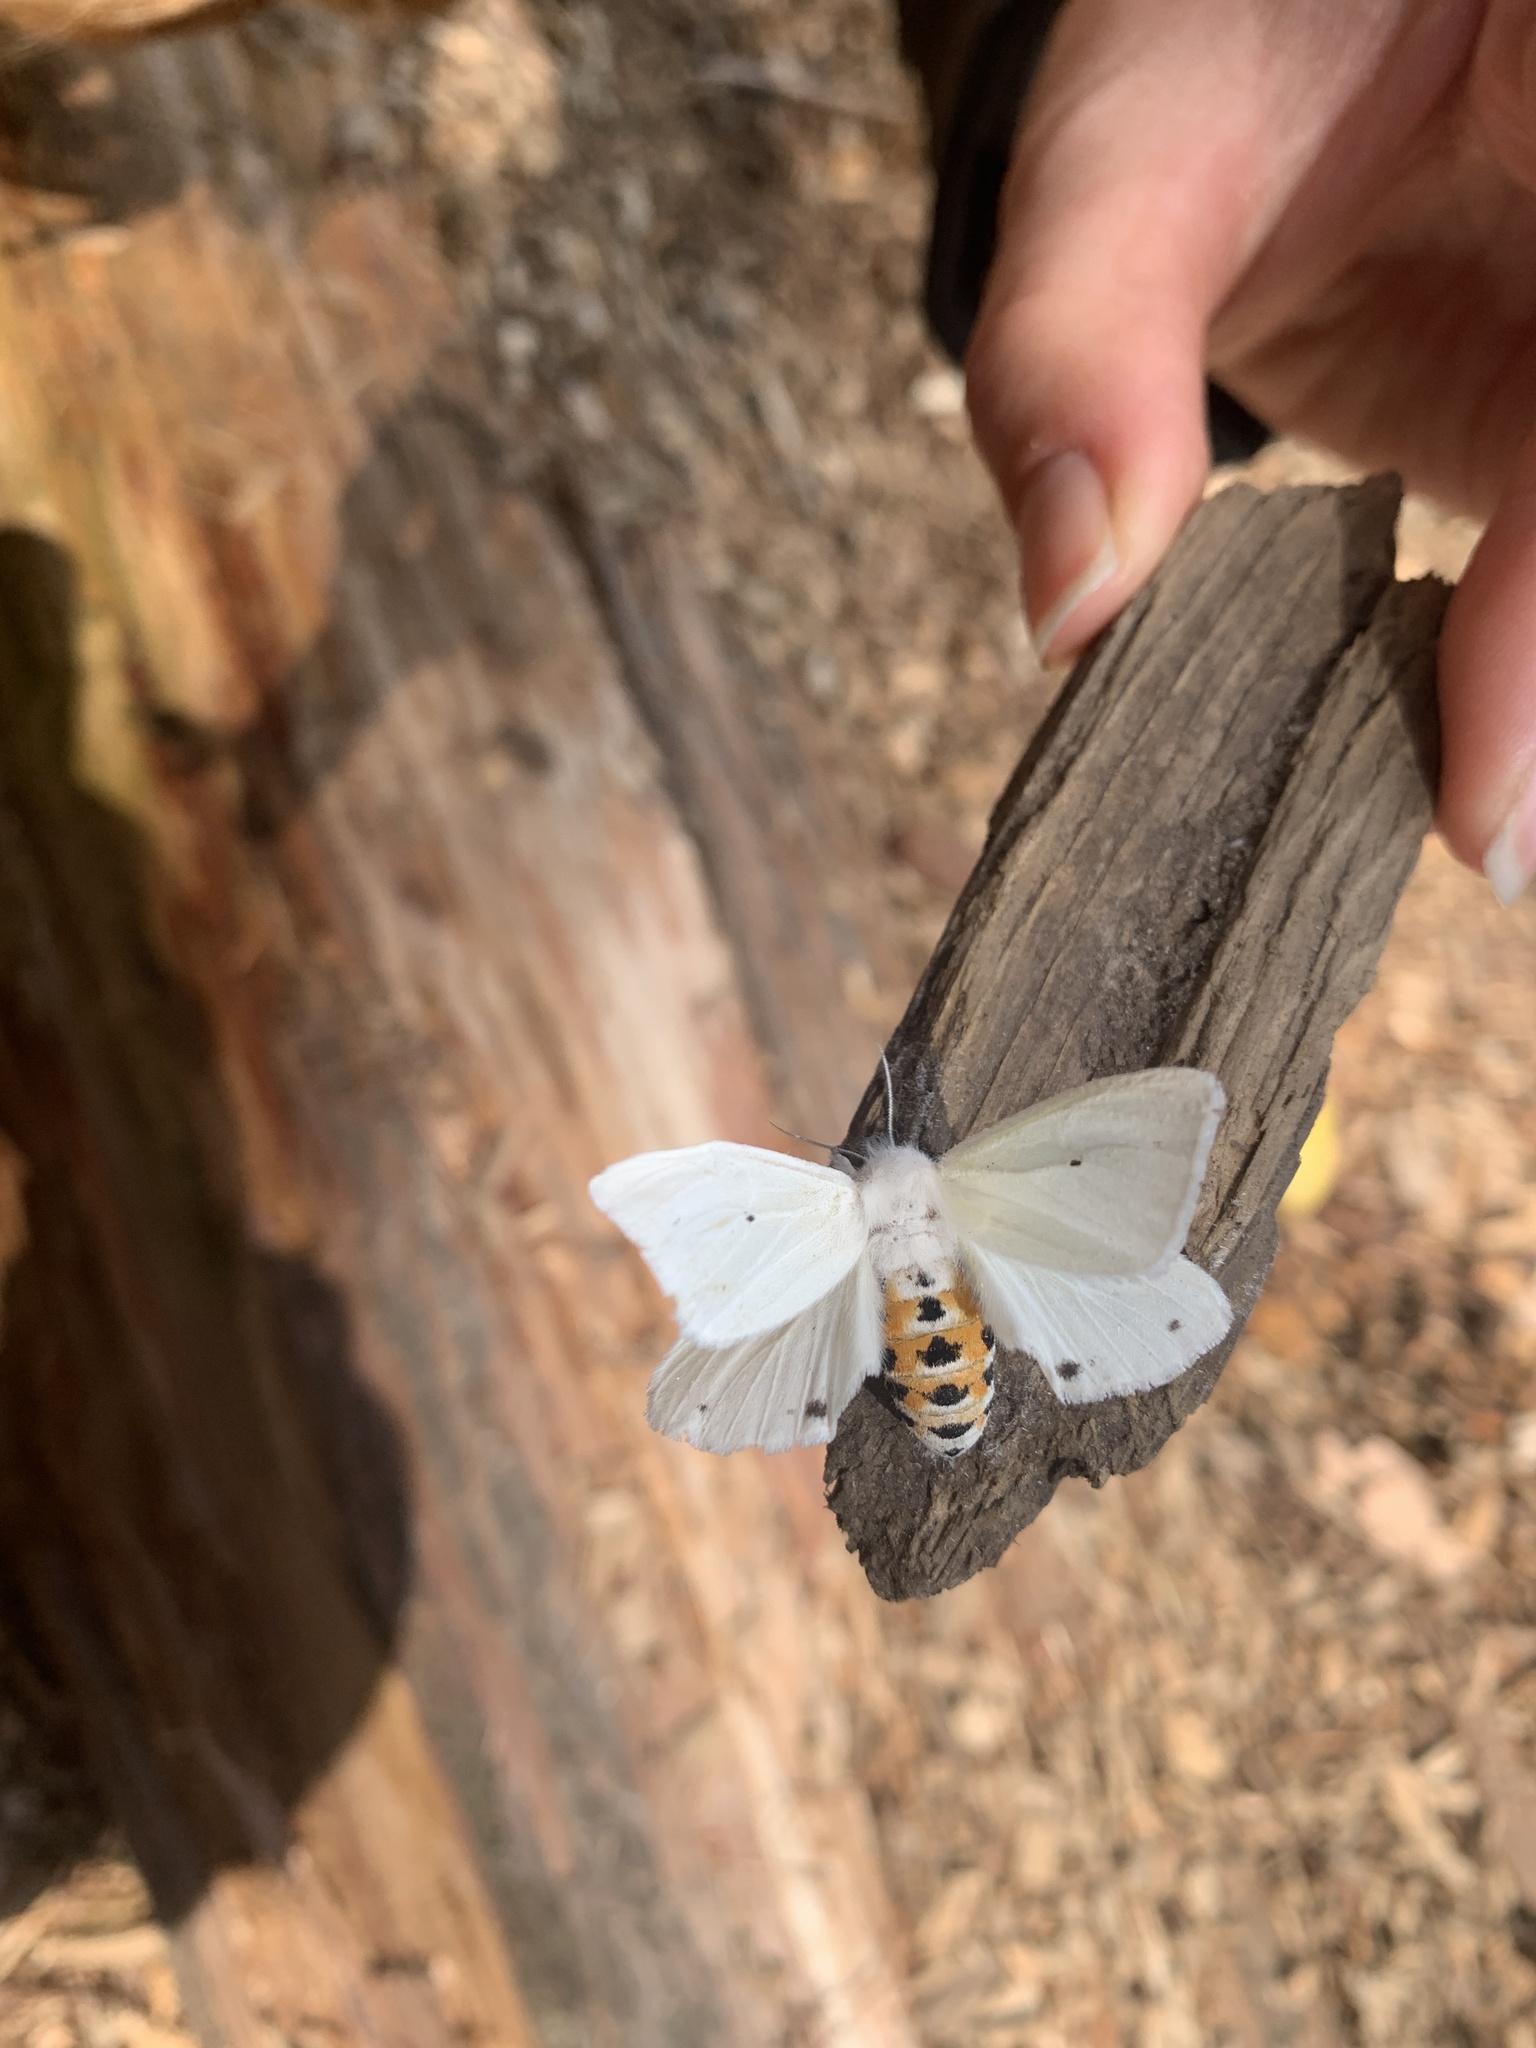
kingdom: Animalia
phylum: Arthropoda
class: Insecta
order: Lepidoptera
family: Erebidae
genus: Spilosoma
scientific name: Spilosoma virginica
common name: Virginia tiger moth
